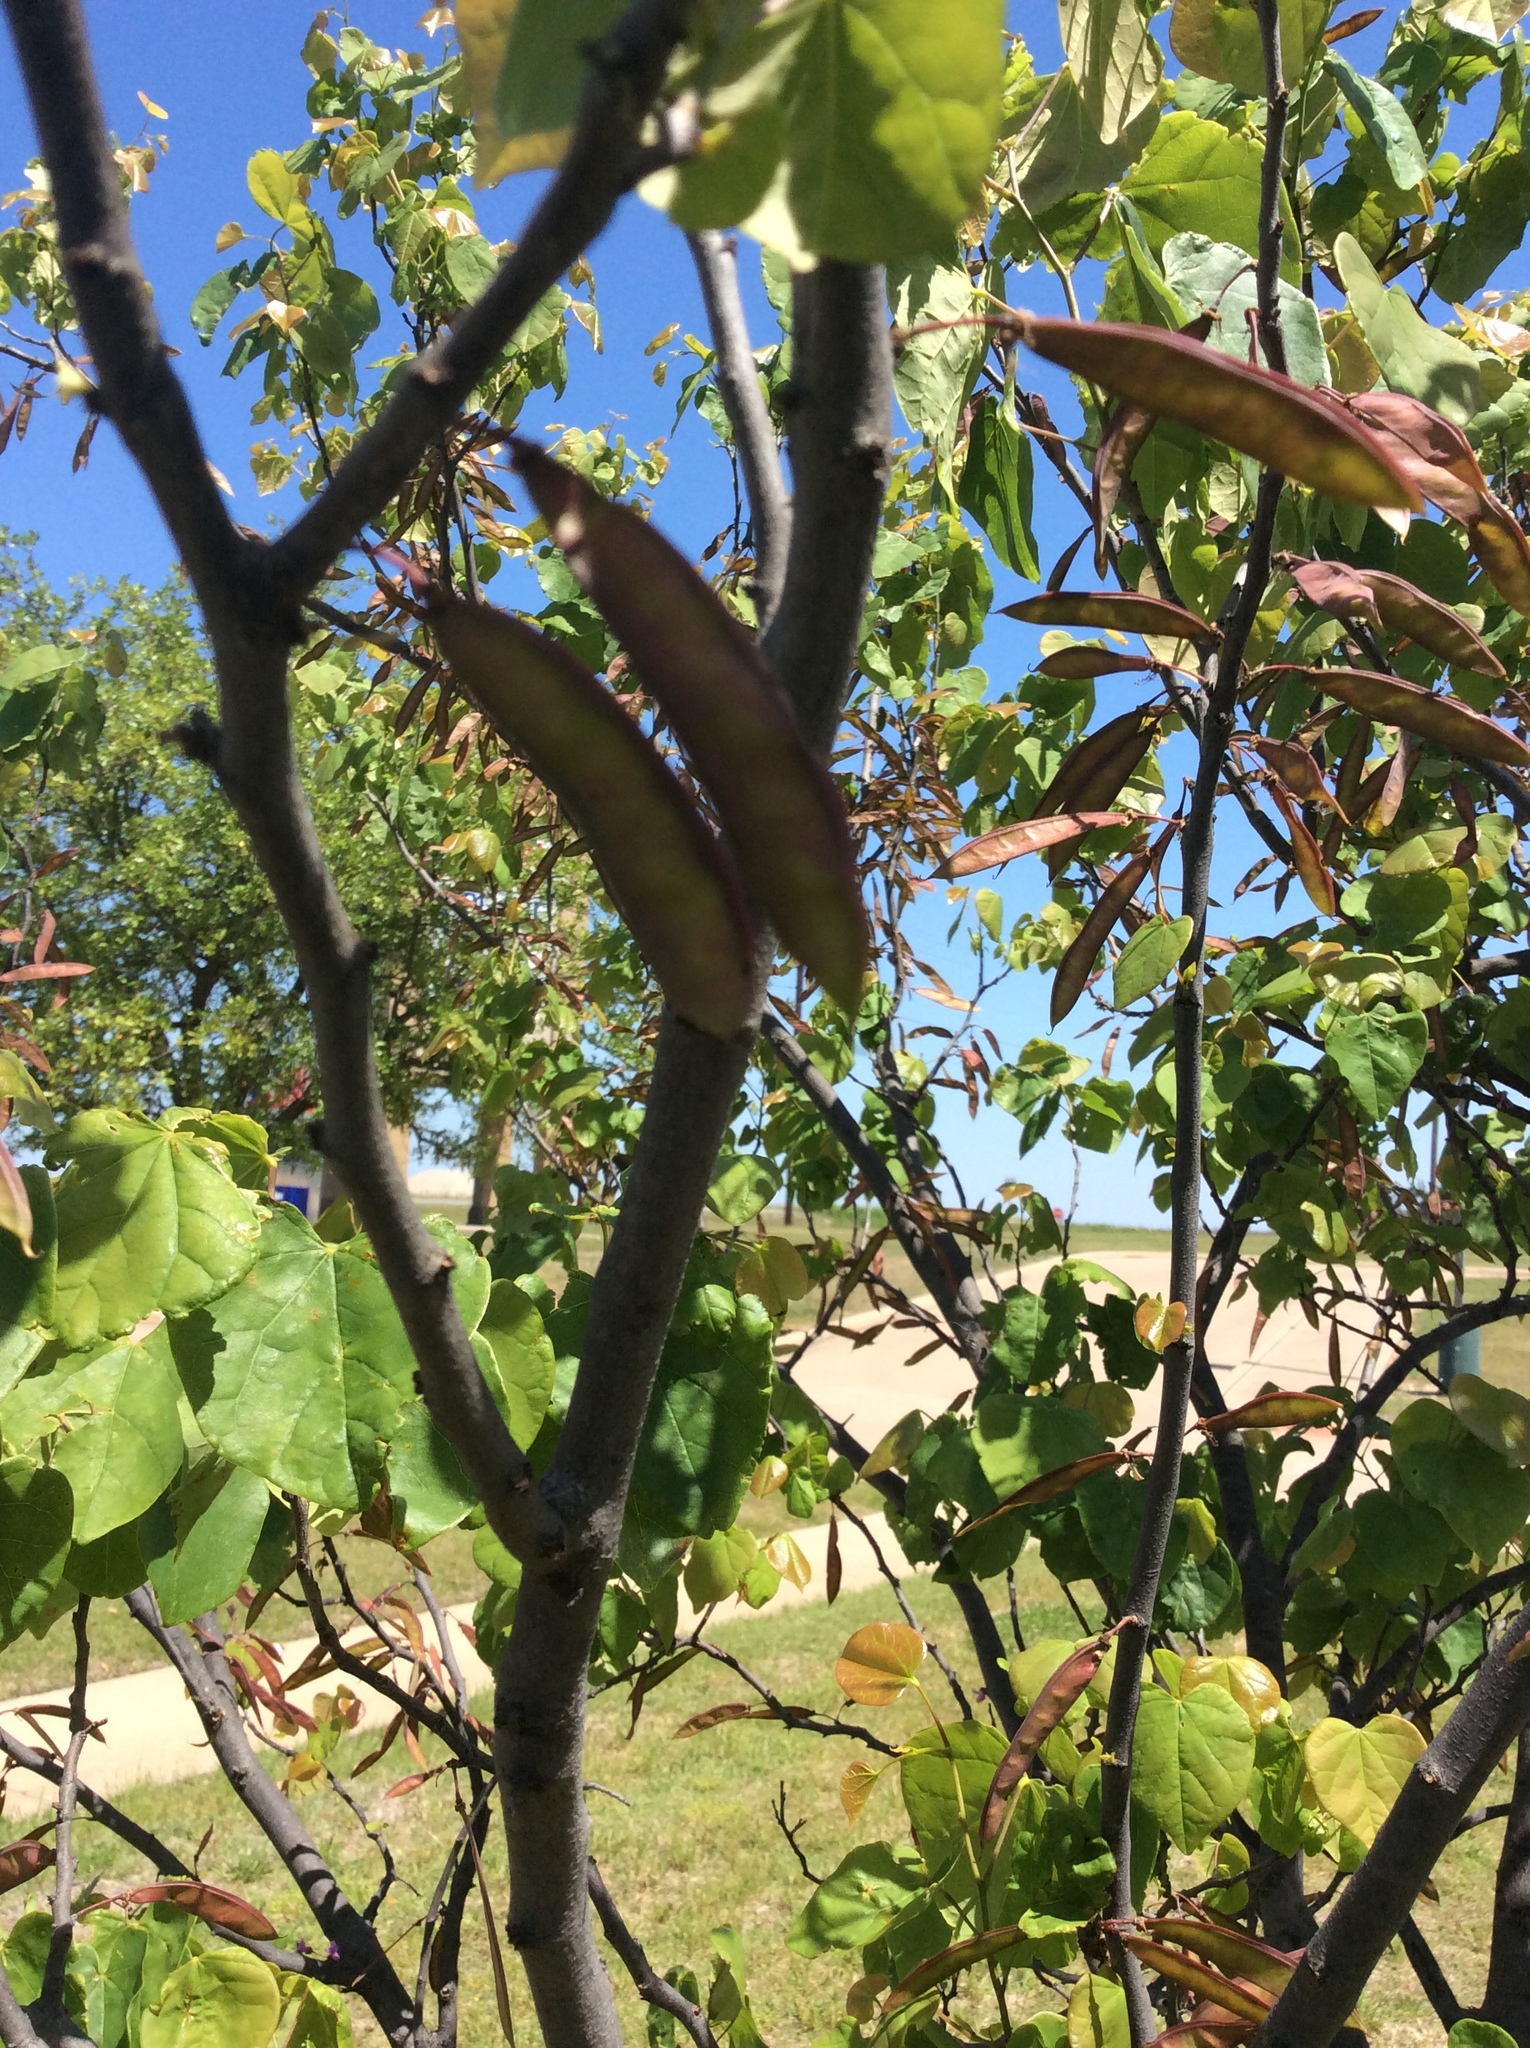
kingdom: Plantae
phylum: Tracheophyta
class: Magnoliopsida
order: Fabales
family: Fabaceae
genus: Cercis
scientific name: Cercis canadensis
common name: Eastern redbud
